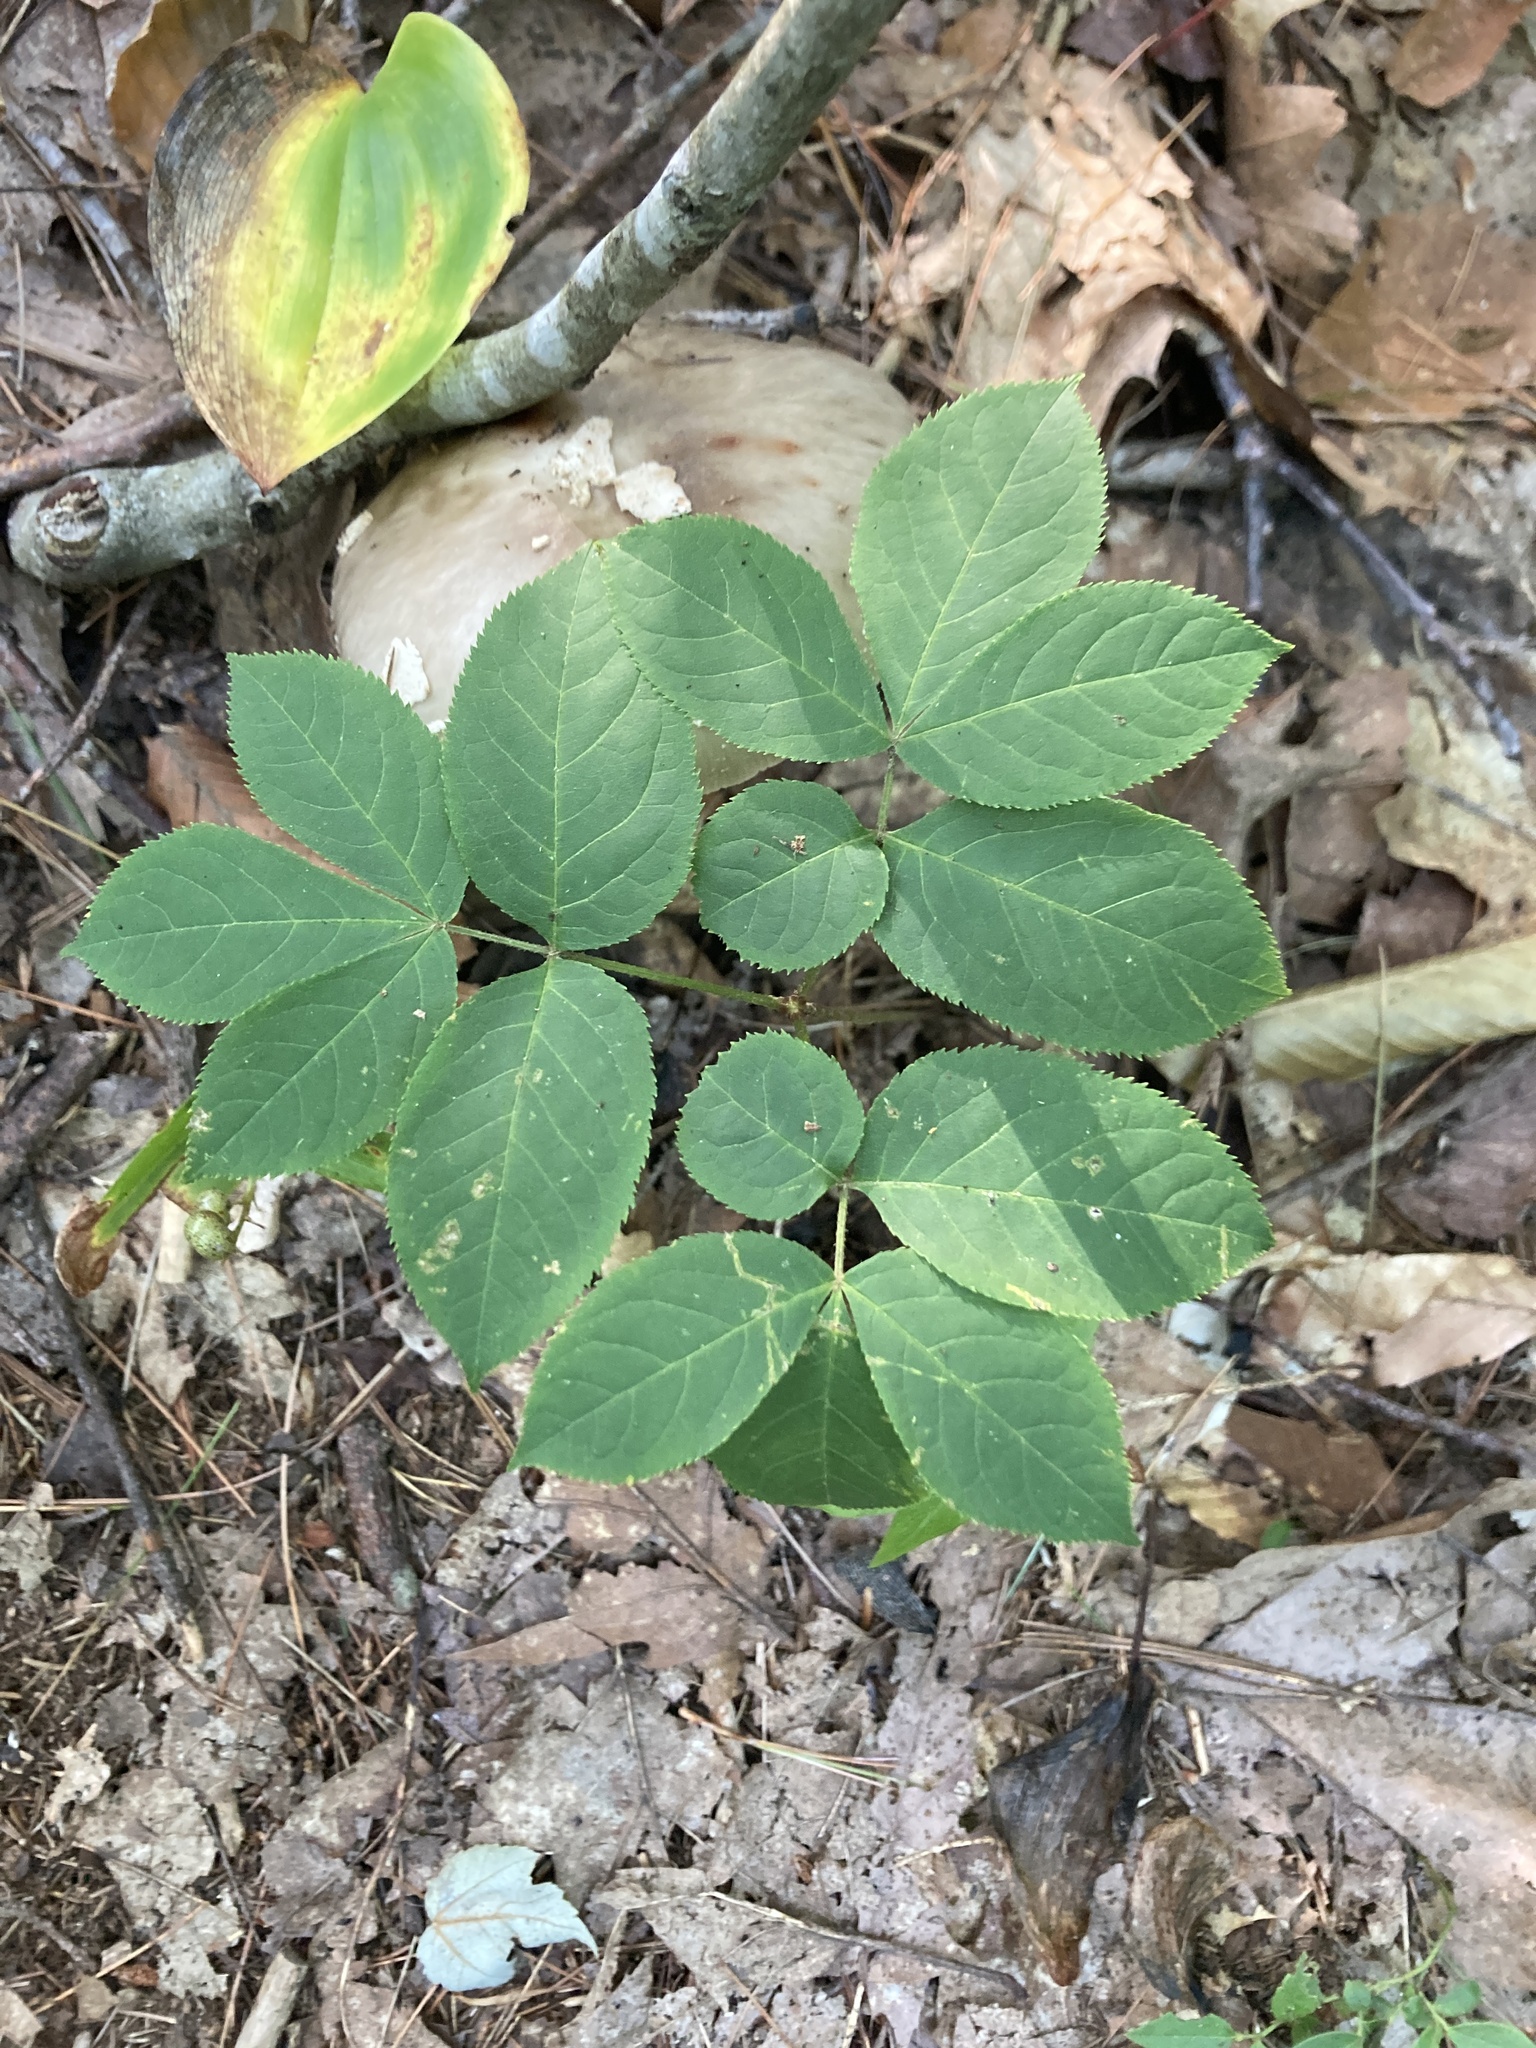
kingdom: Plantae
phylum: Tracheophyta
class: Magnoliopsida
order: Apiales
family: Araliaceae
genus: Aralia
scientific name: Aralia nudicaulis
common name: Wild sarsaparilla
